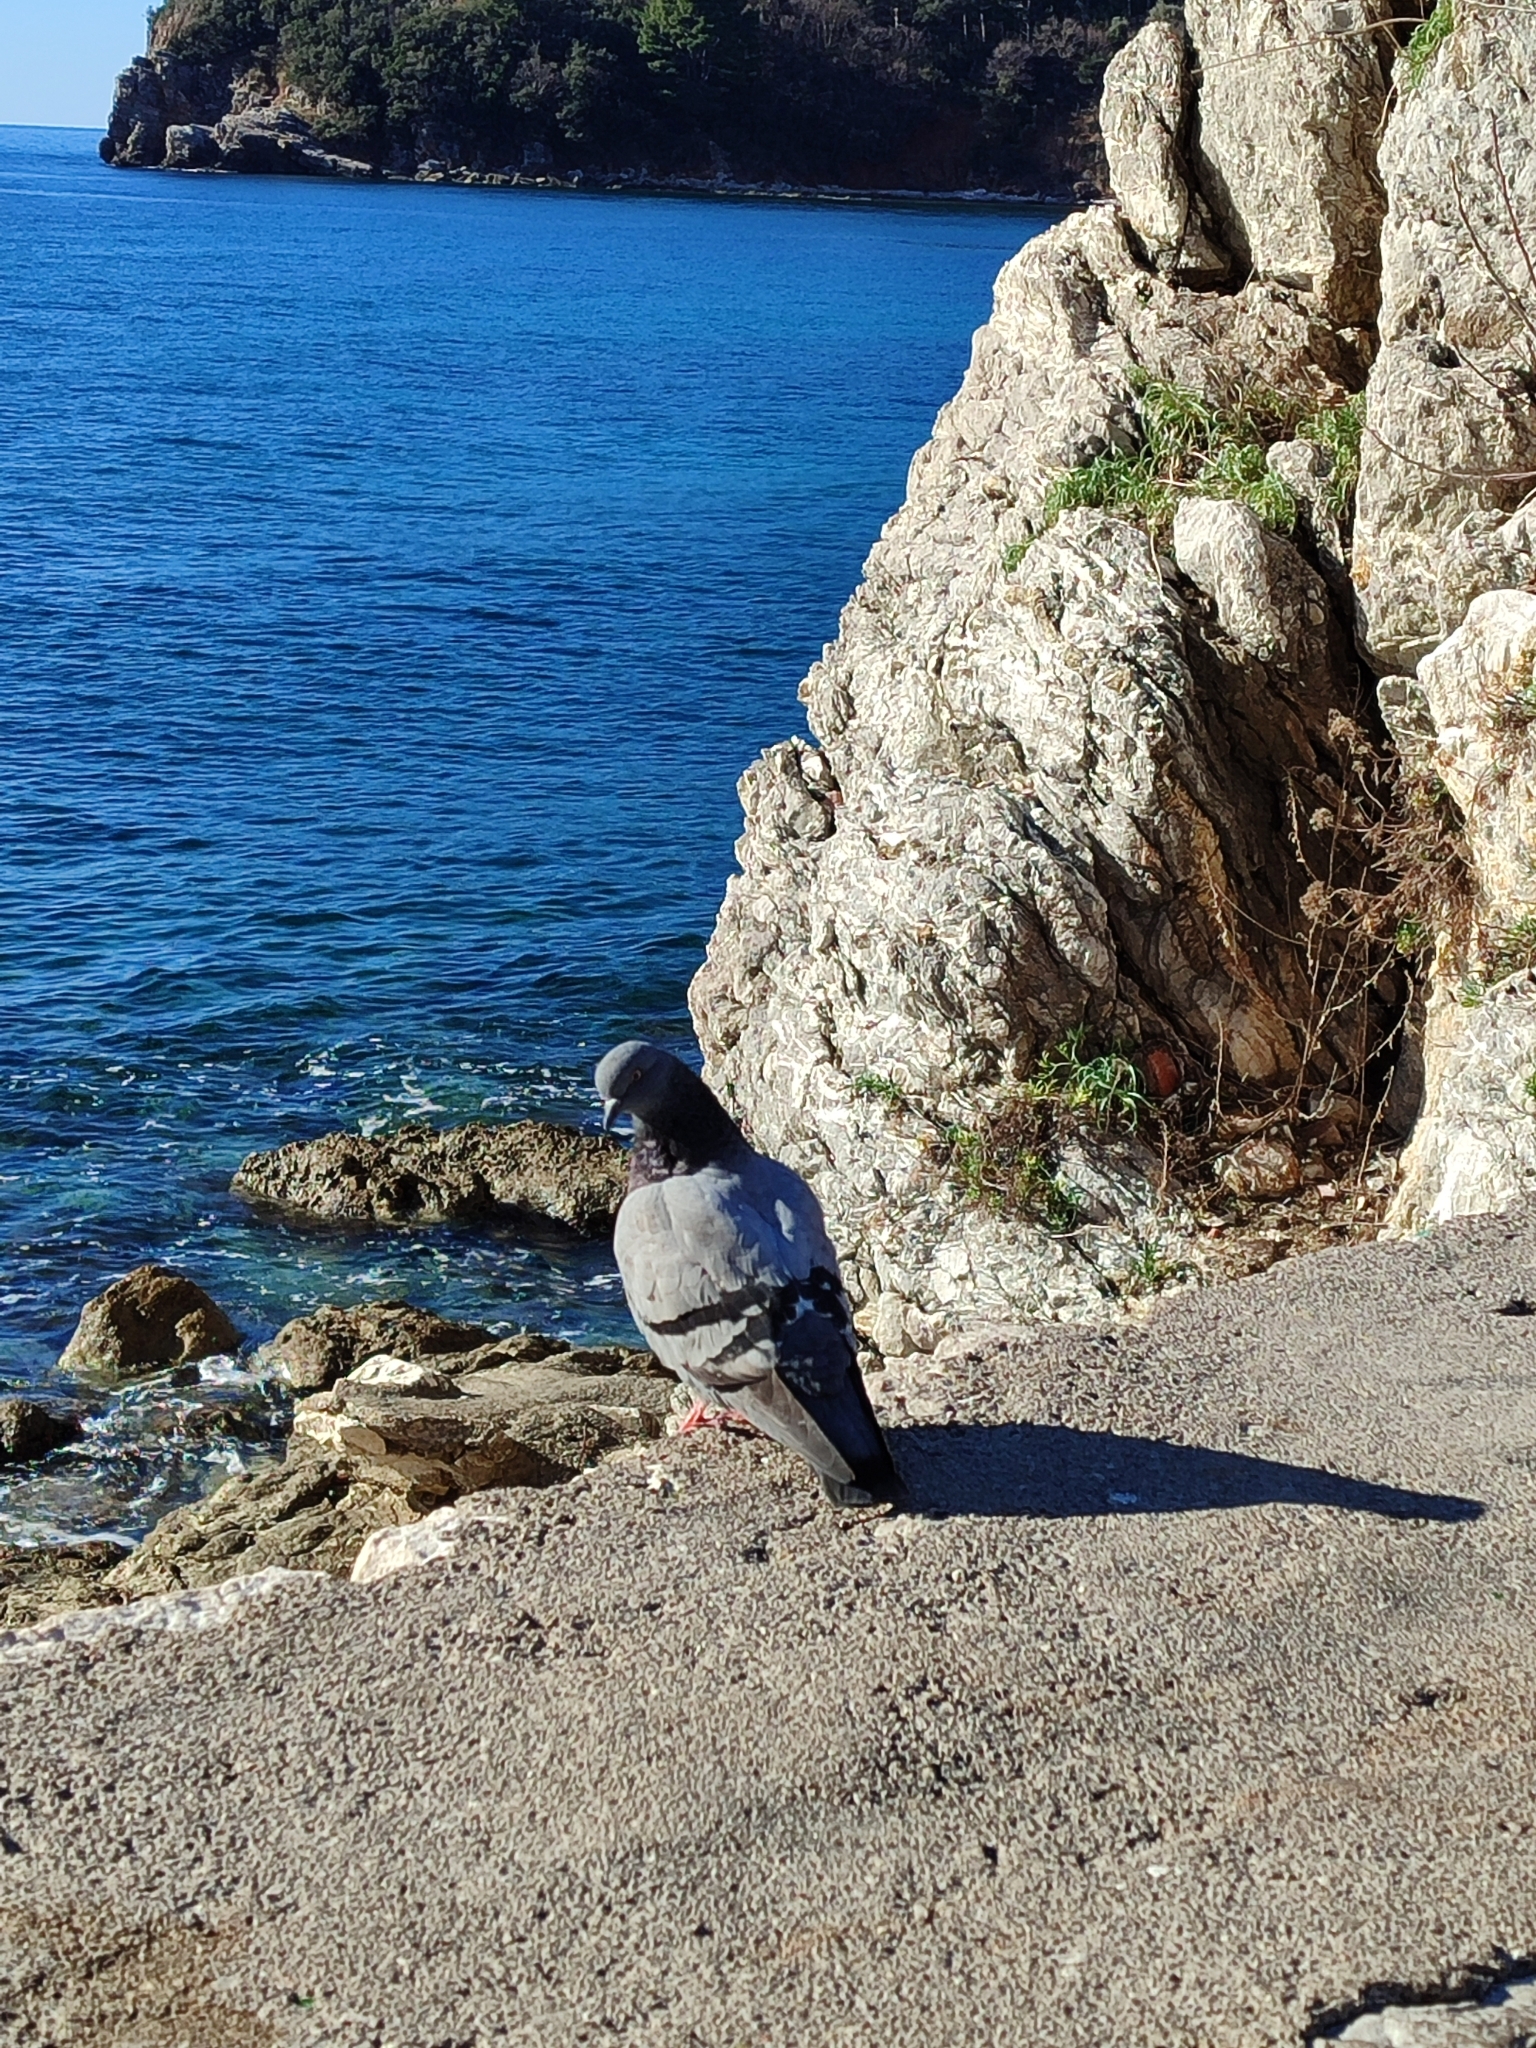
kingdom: Animalia
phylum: Chordata
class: Aves
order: Columbiformes
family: Columbidae
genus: Columba
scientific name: Columba livia
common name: Rock pigeon
